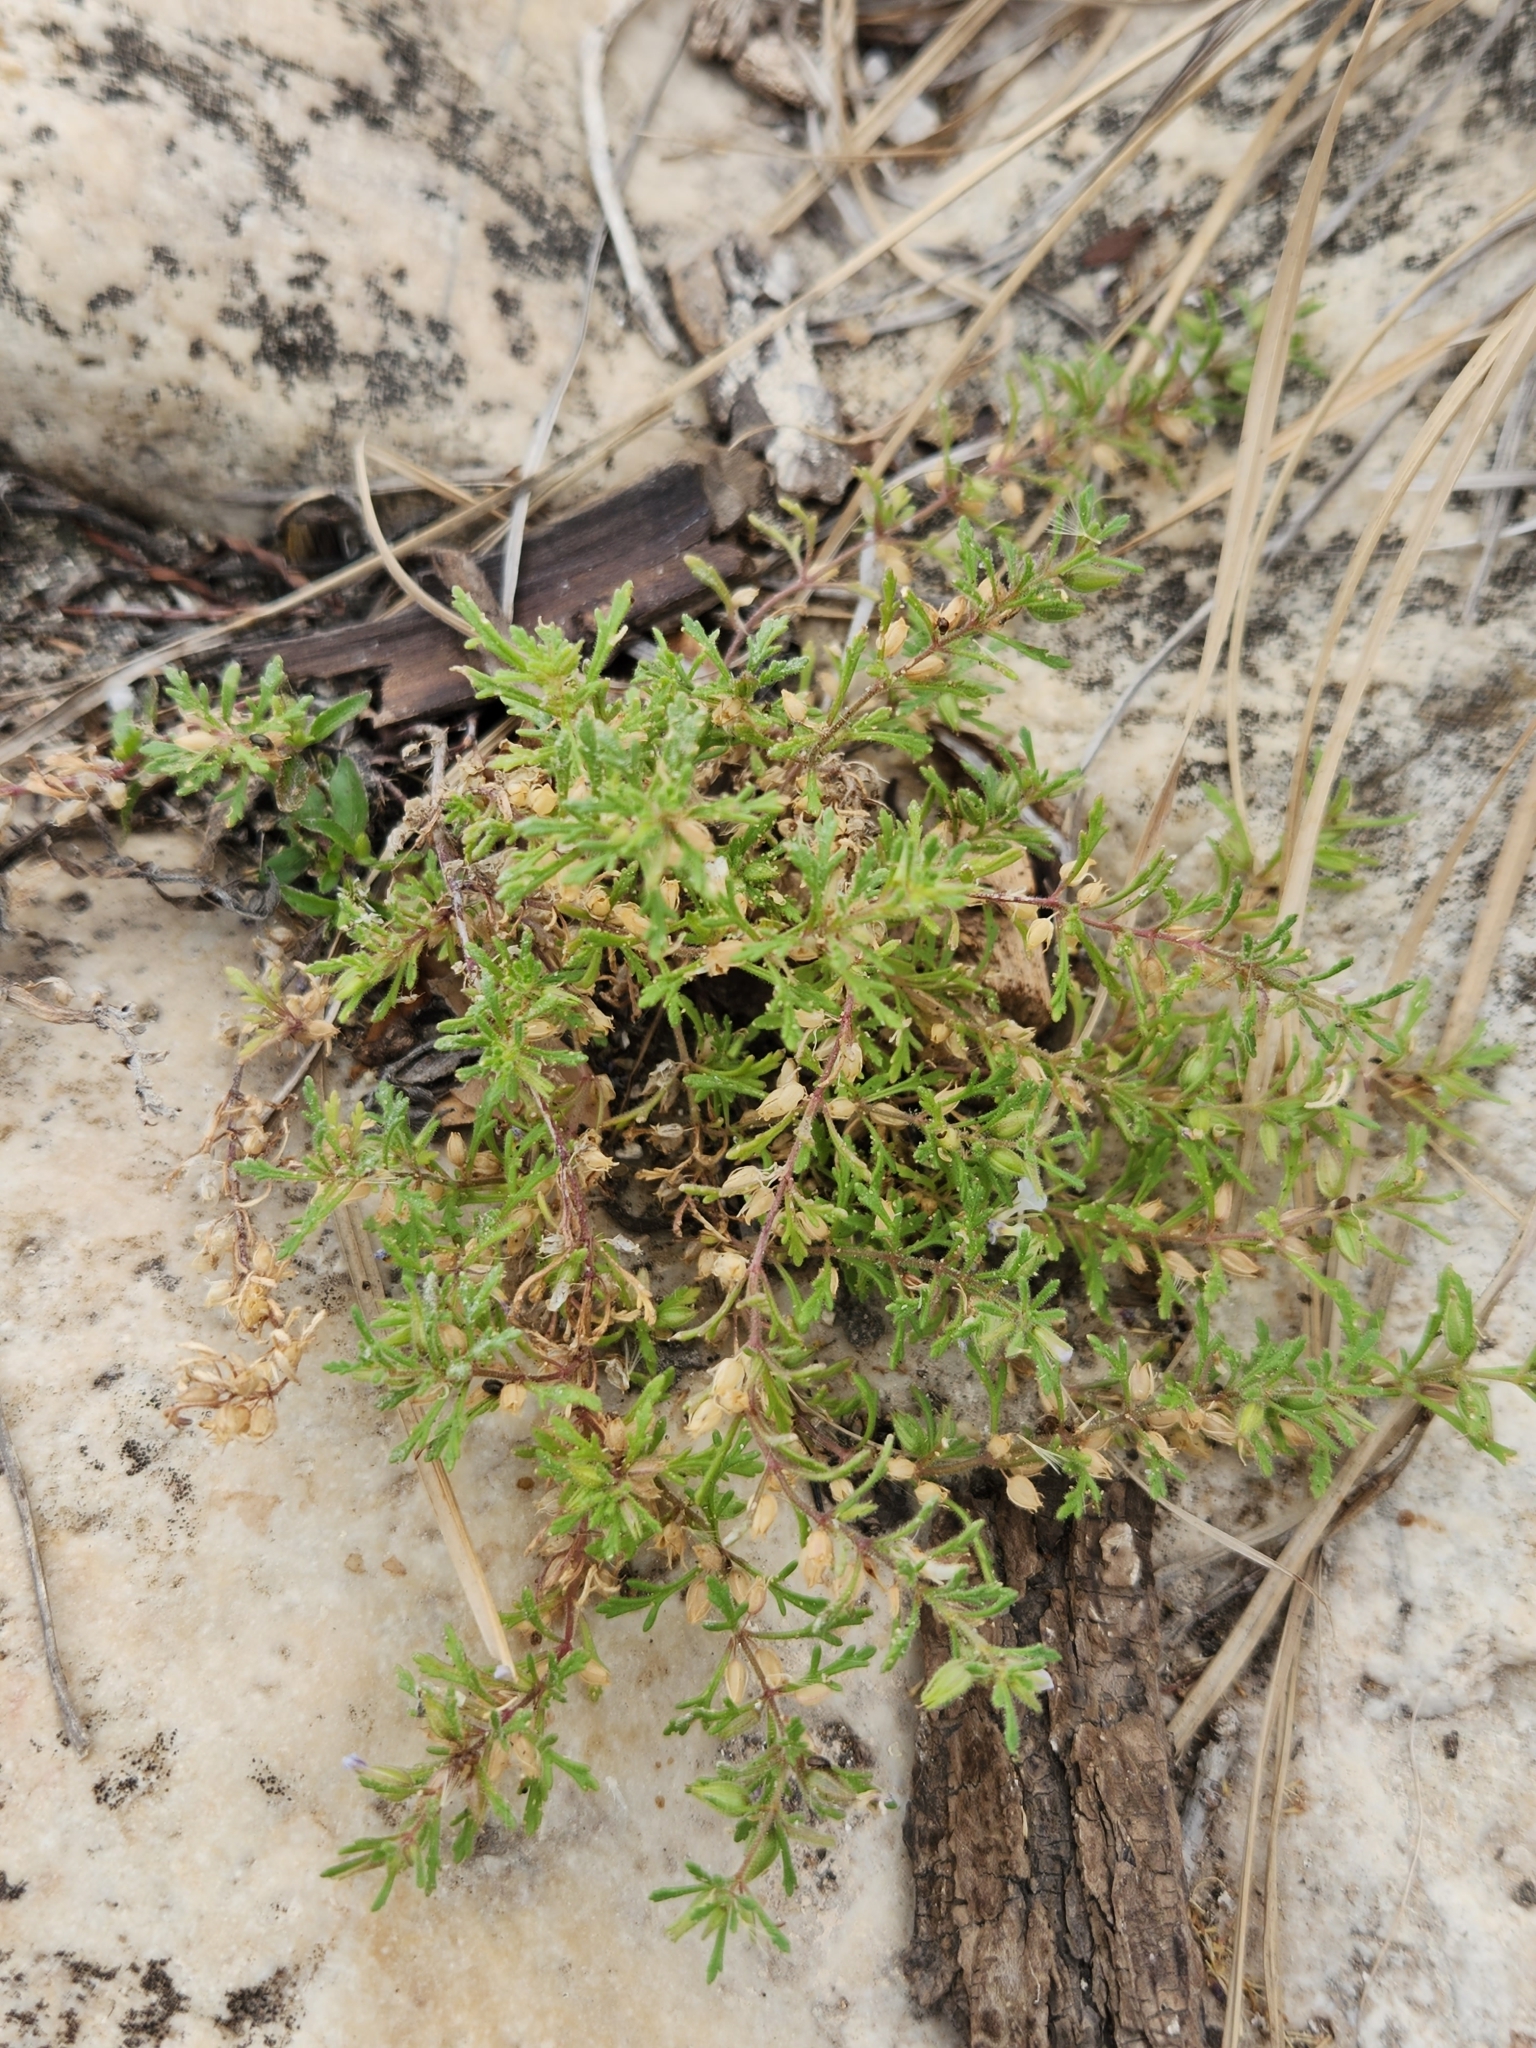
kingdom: Plantae
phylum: Tracheophyta
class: Magnoliopsida
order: Lamiales
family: Plantaginaceae
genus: Leucospora
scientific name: Leucospora multifida
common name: Narrow-leaf paleseed
